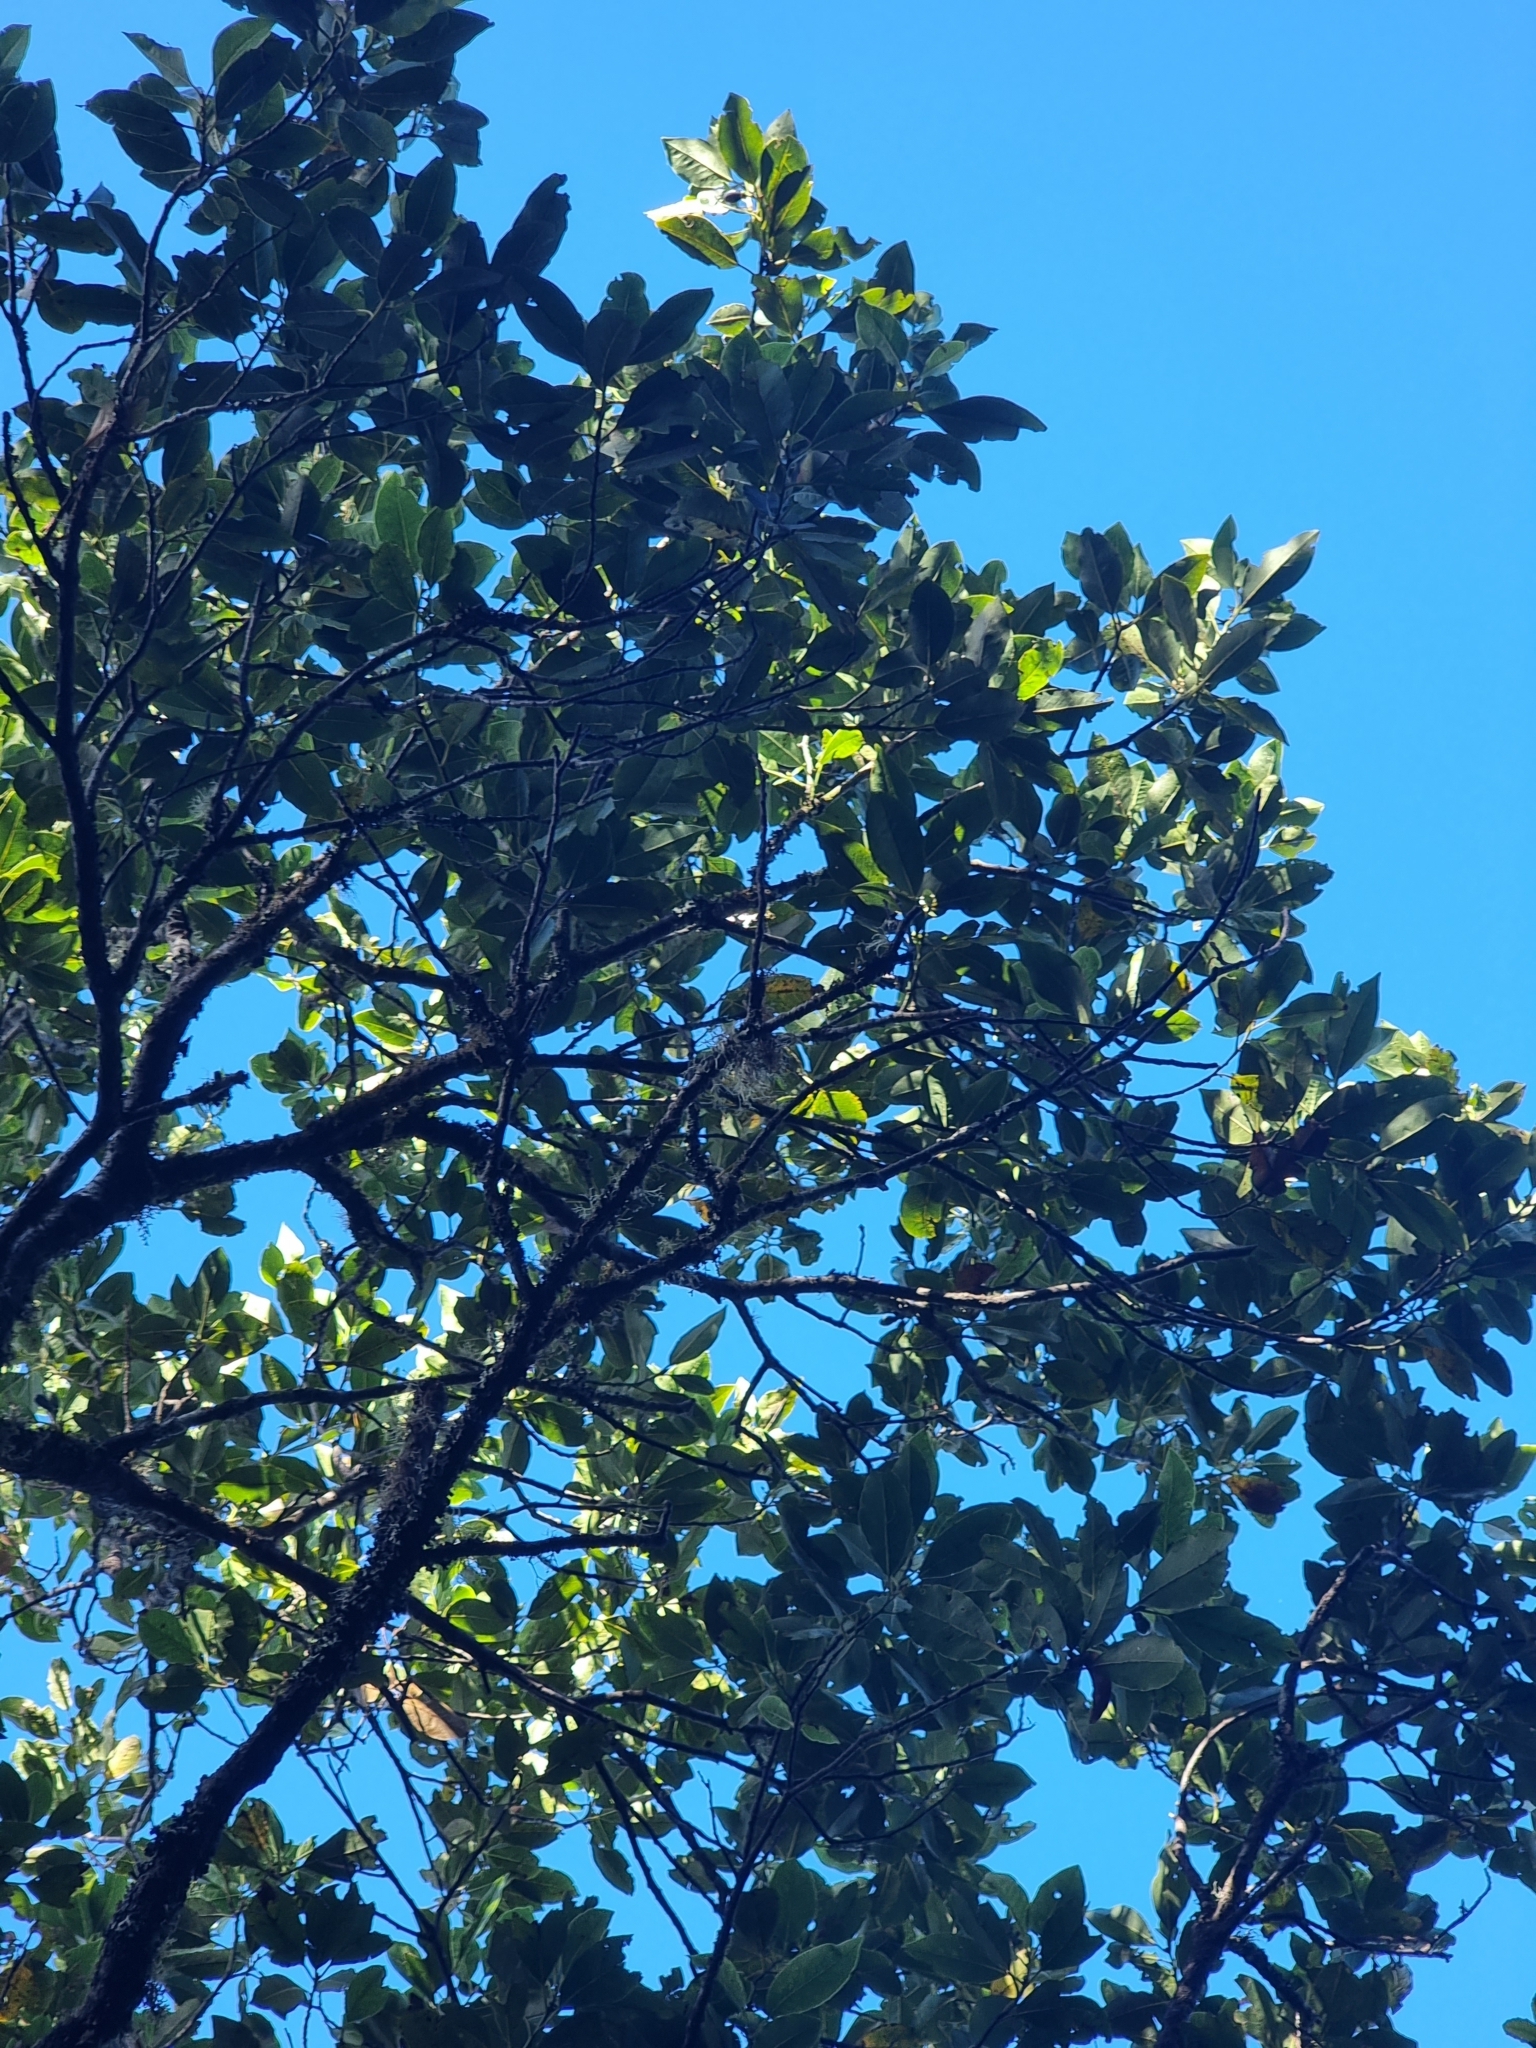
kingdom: Plantae
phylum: Tracheophyta
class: Magnoliopsida
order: Laurales
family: Lauraceae
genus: Laurus
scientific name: Laurus novocanariensis
